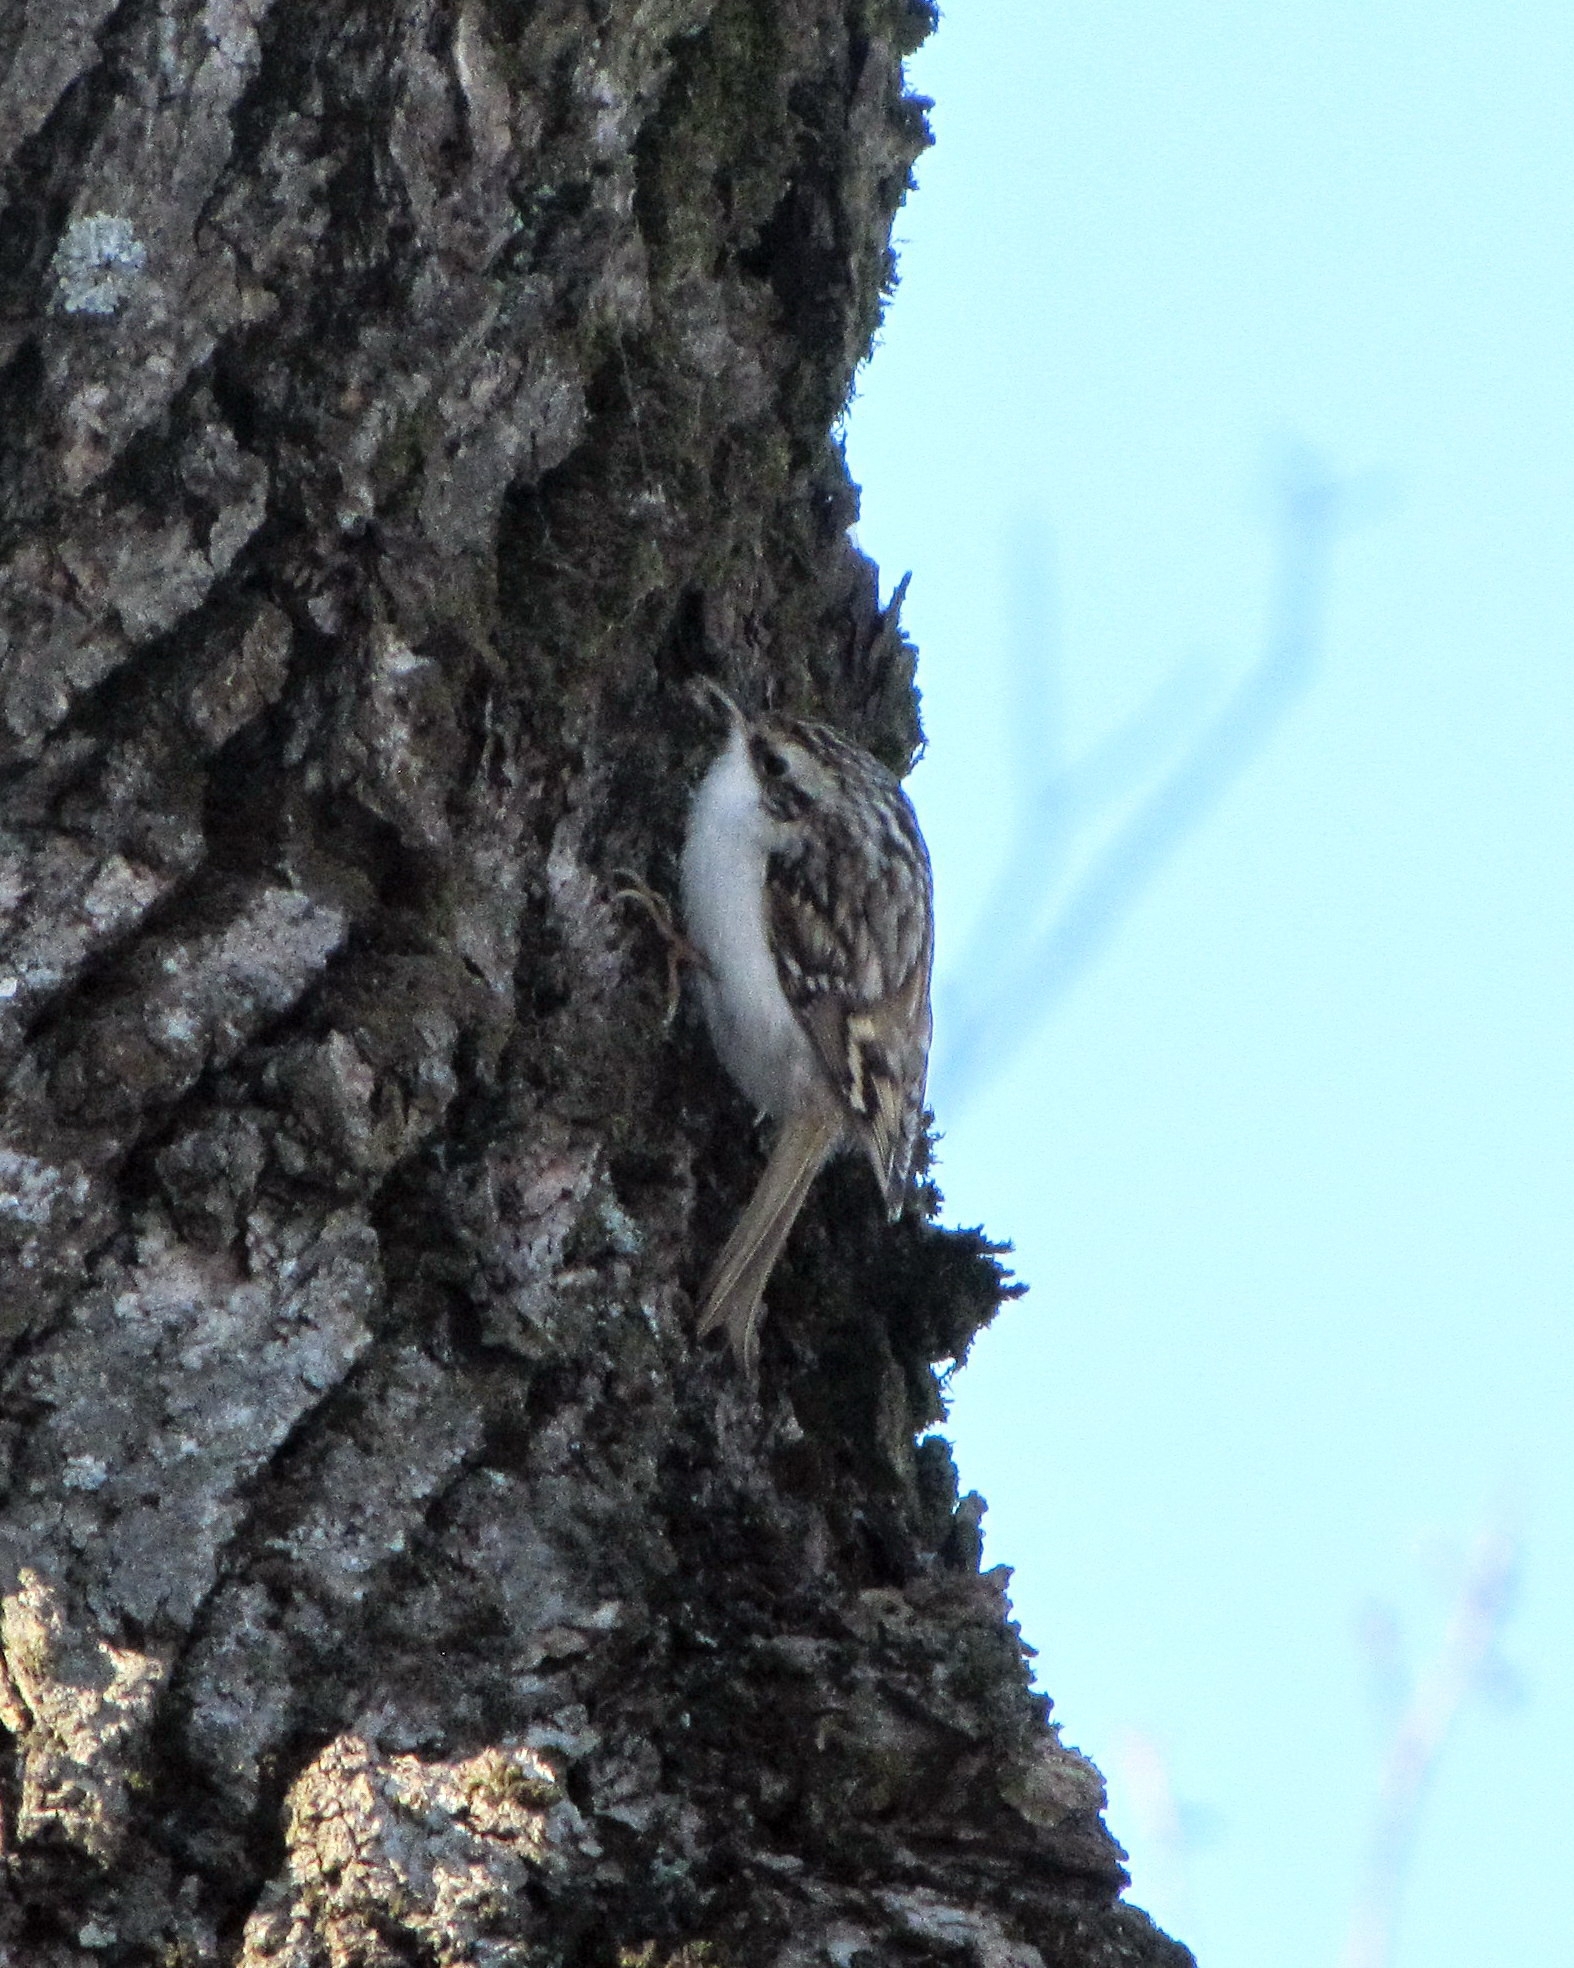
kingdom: Animalia
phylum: Chordata
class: Aves
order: Passeriformes
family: Certhiidae
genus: Certhia
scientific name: Certhia familiaris
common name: Eurasian treecreeper
